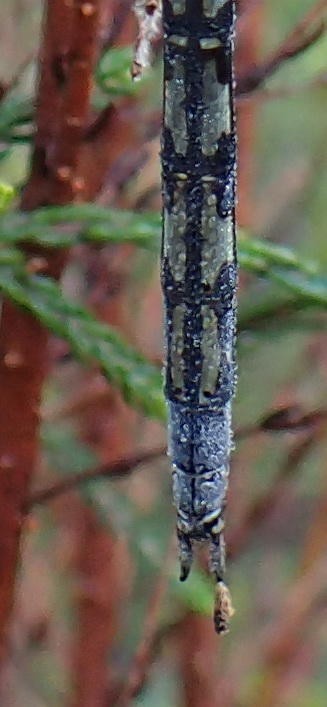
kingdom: Animalia
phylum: Arthropoda
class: Insecta
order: Odonata
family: Libellulidae
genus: Orthetrum
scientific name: Orthetrum trinacria
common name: Long skimmer
